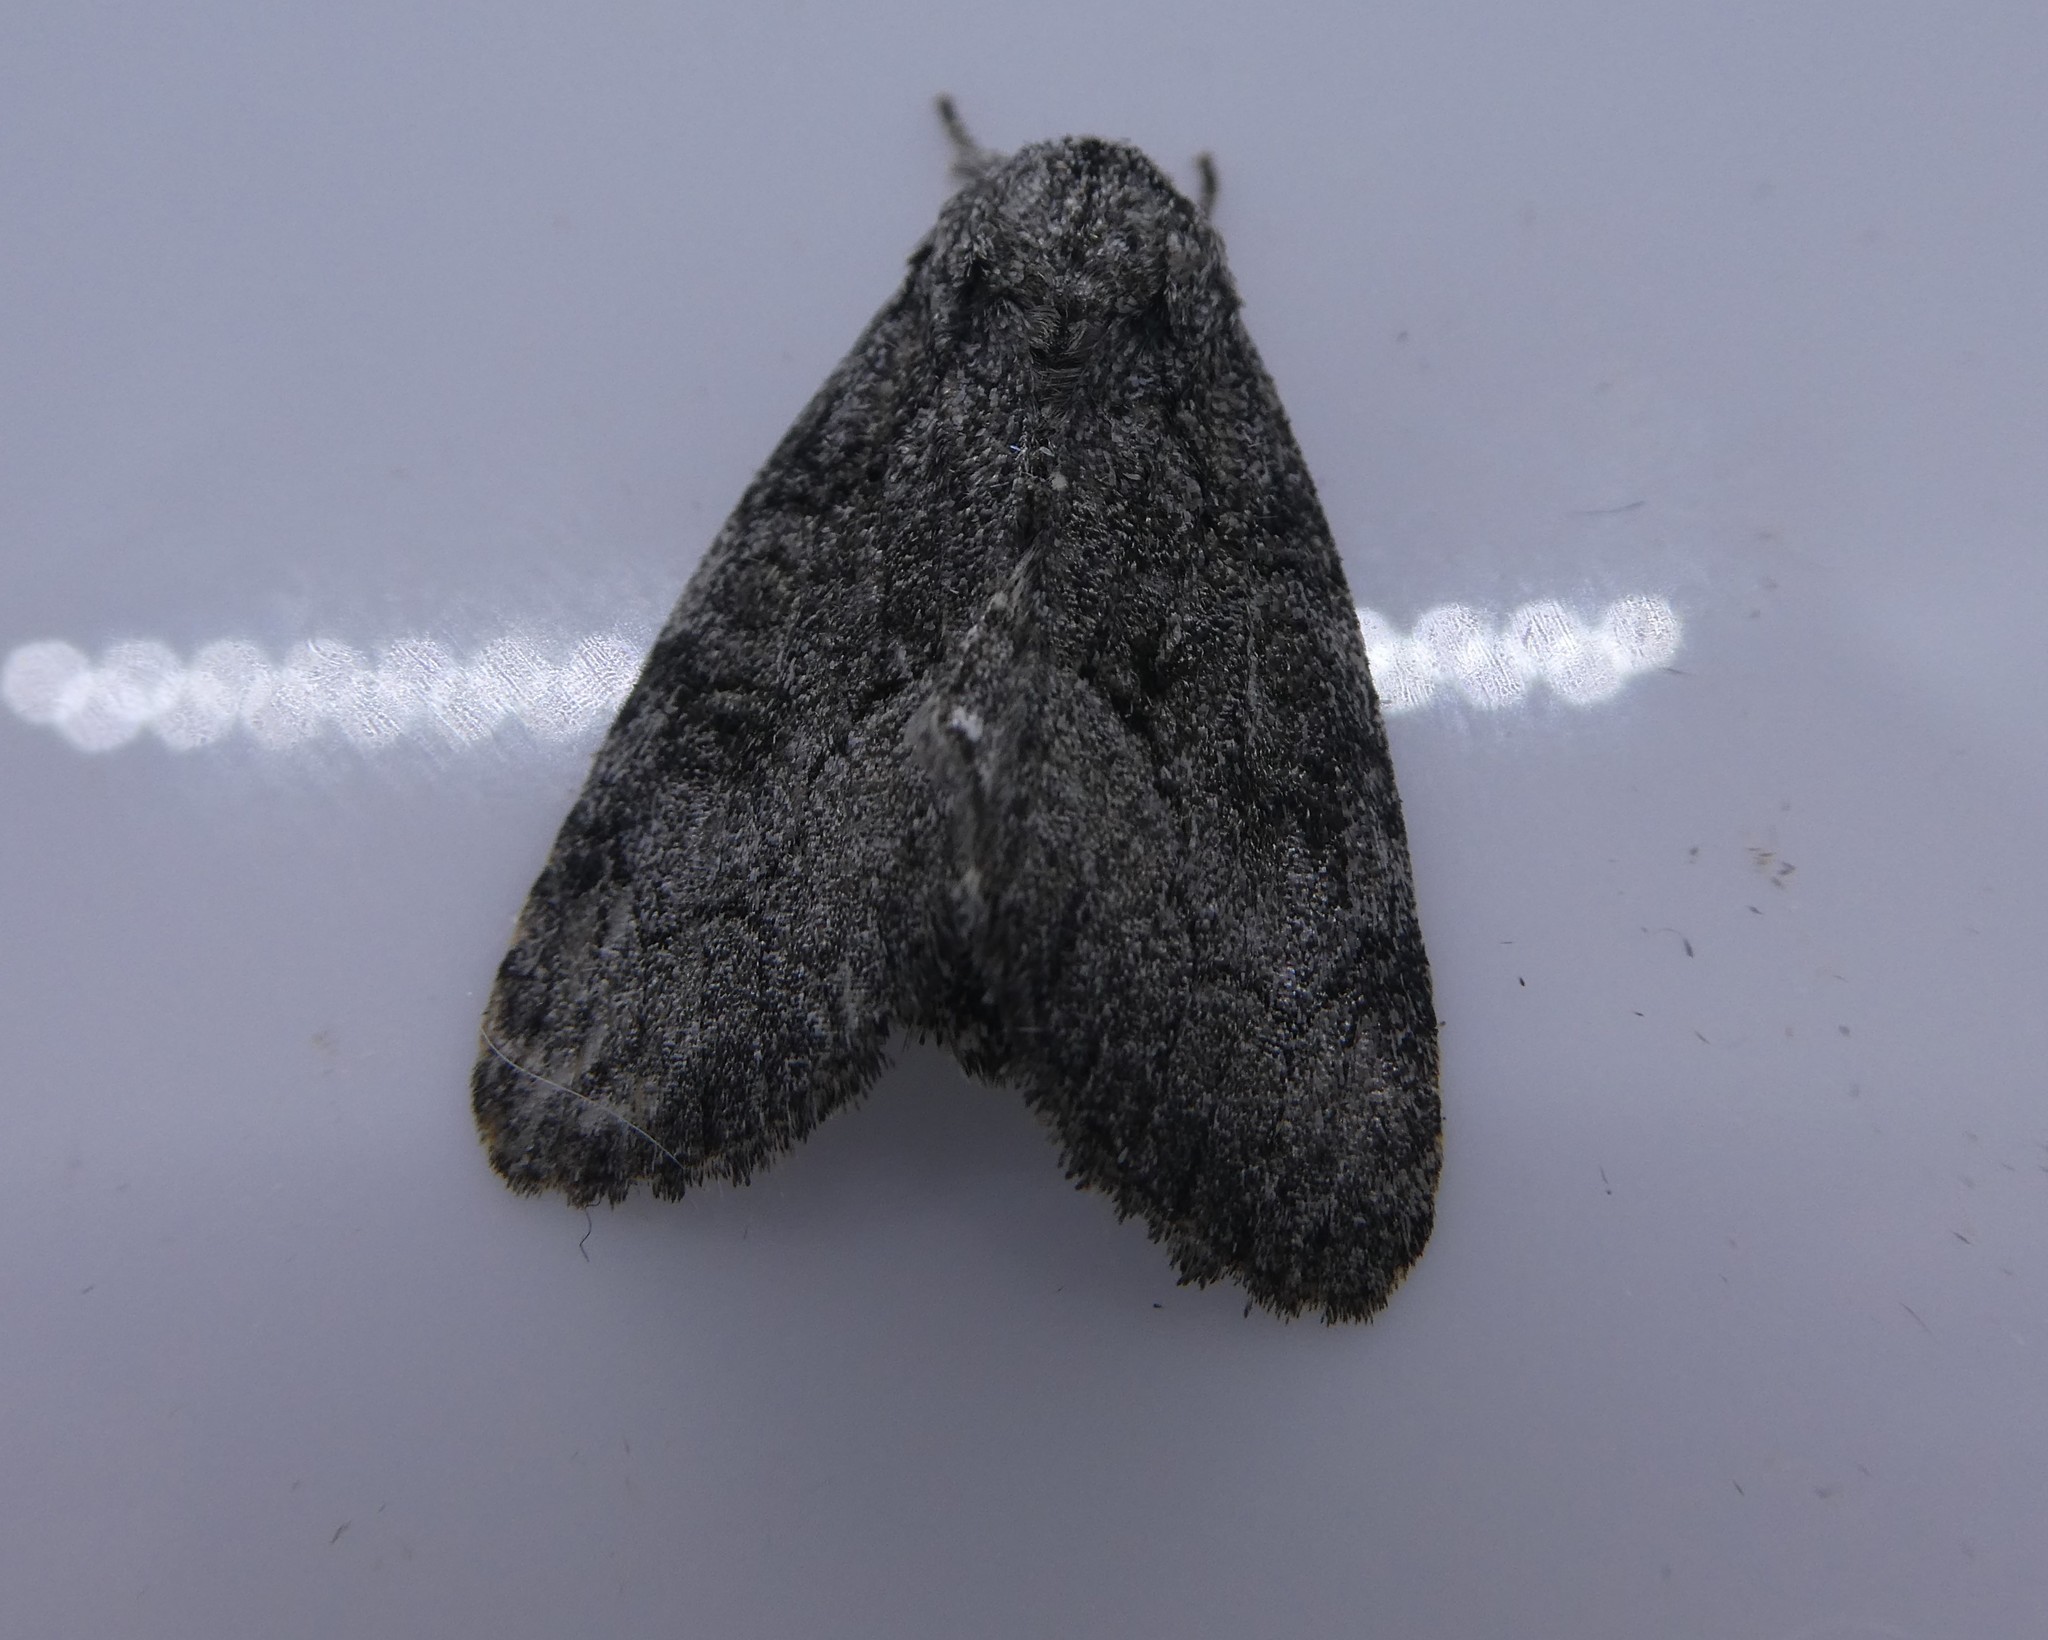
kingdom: Animalia
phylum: Arthropoda
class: Insecta
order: Lepidoptera
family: Noctuidae
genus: Raphia
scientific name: Raphia frater
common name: Brother
